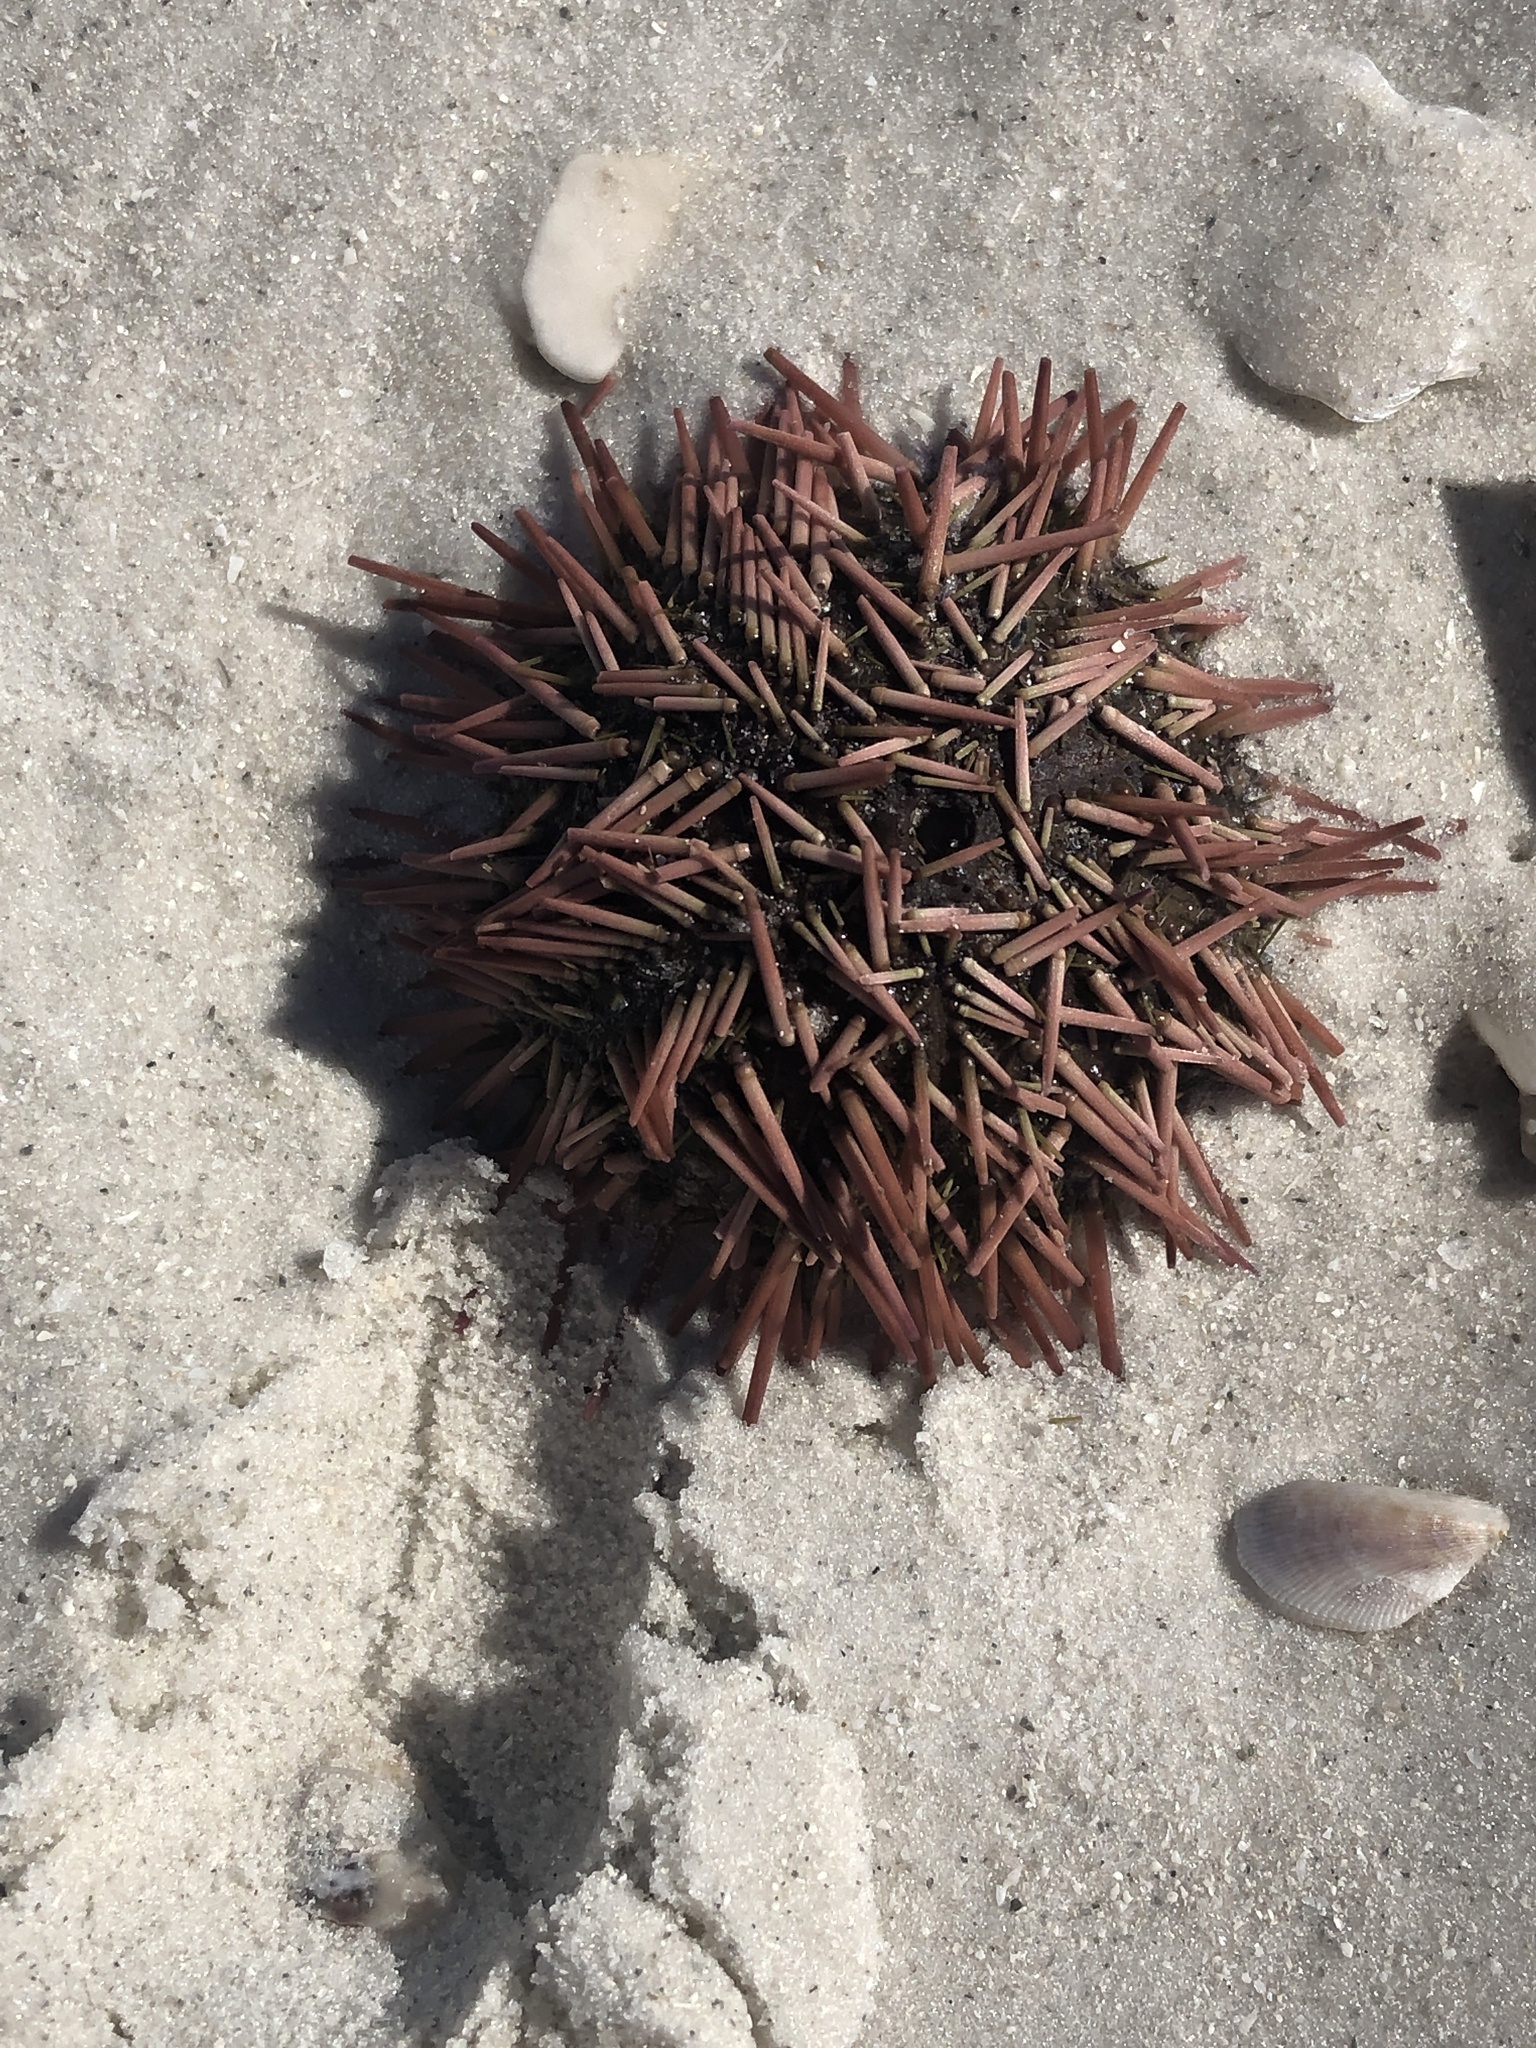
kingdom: Animalia
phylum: Echinodermata
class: Echinoidea
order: Camarodonta
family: Toxopneustidae
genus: Lytechinus
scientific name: Lytechinus variegatus
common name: Variegated urchin
